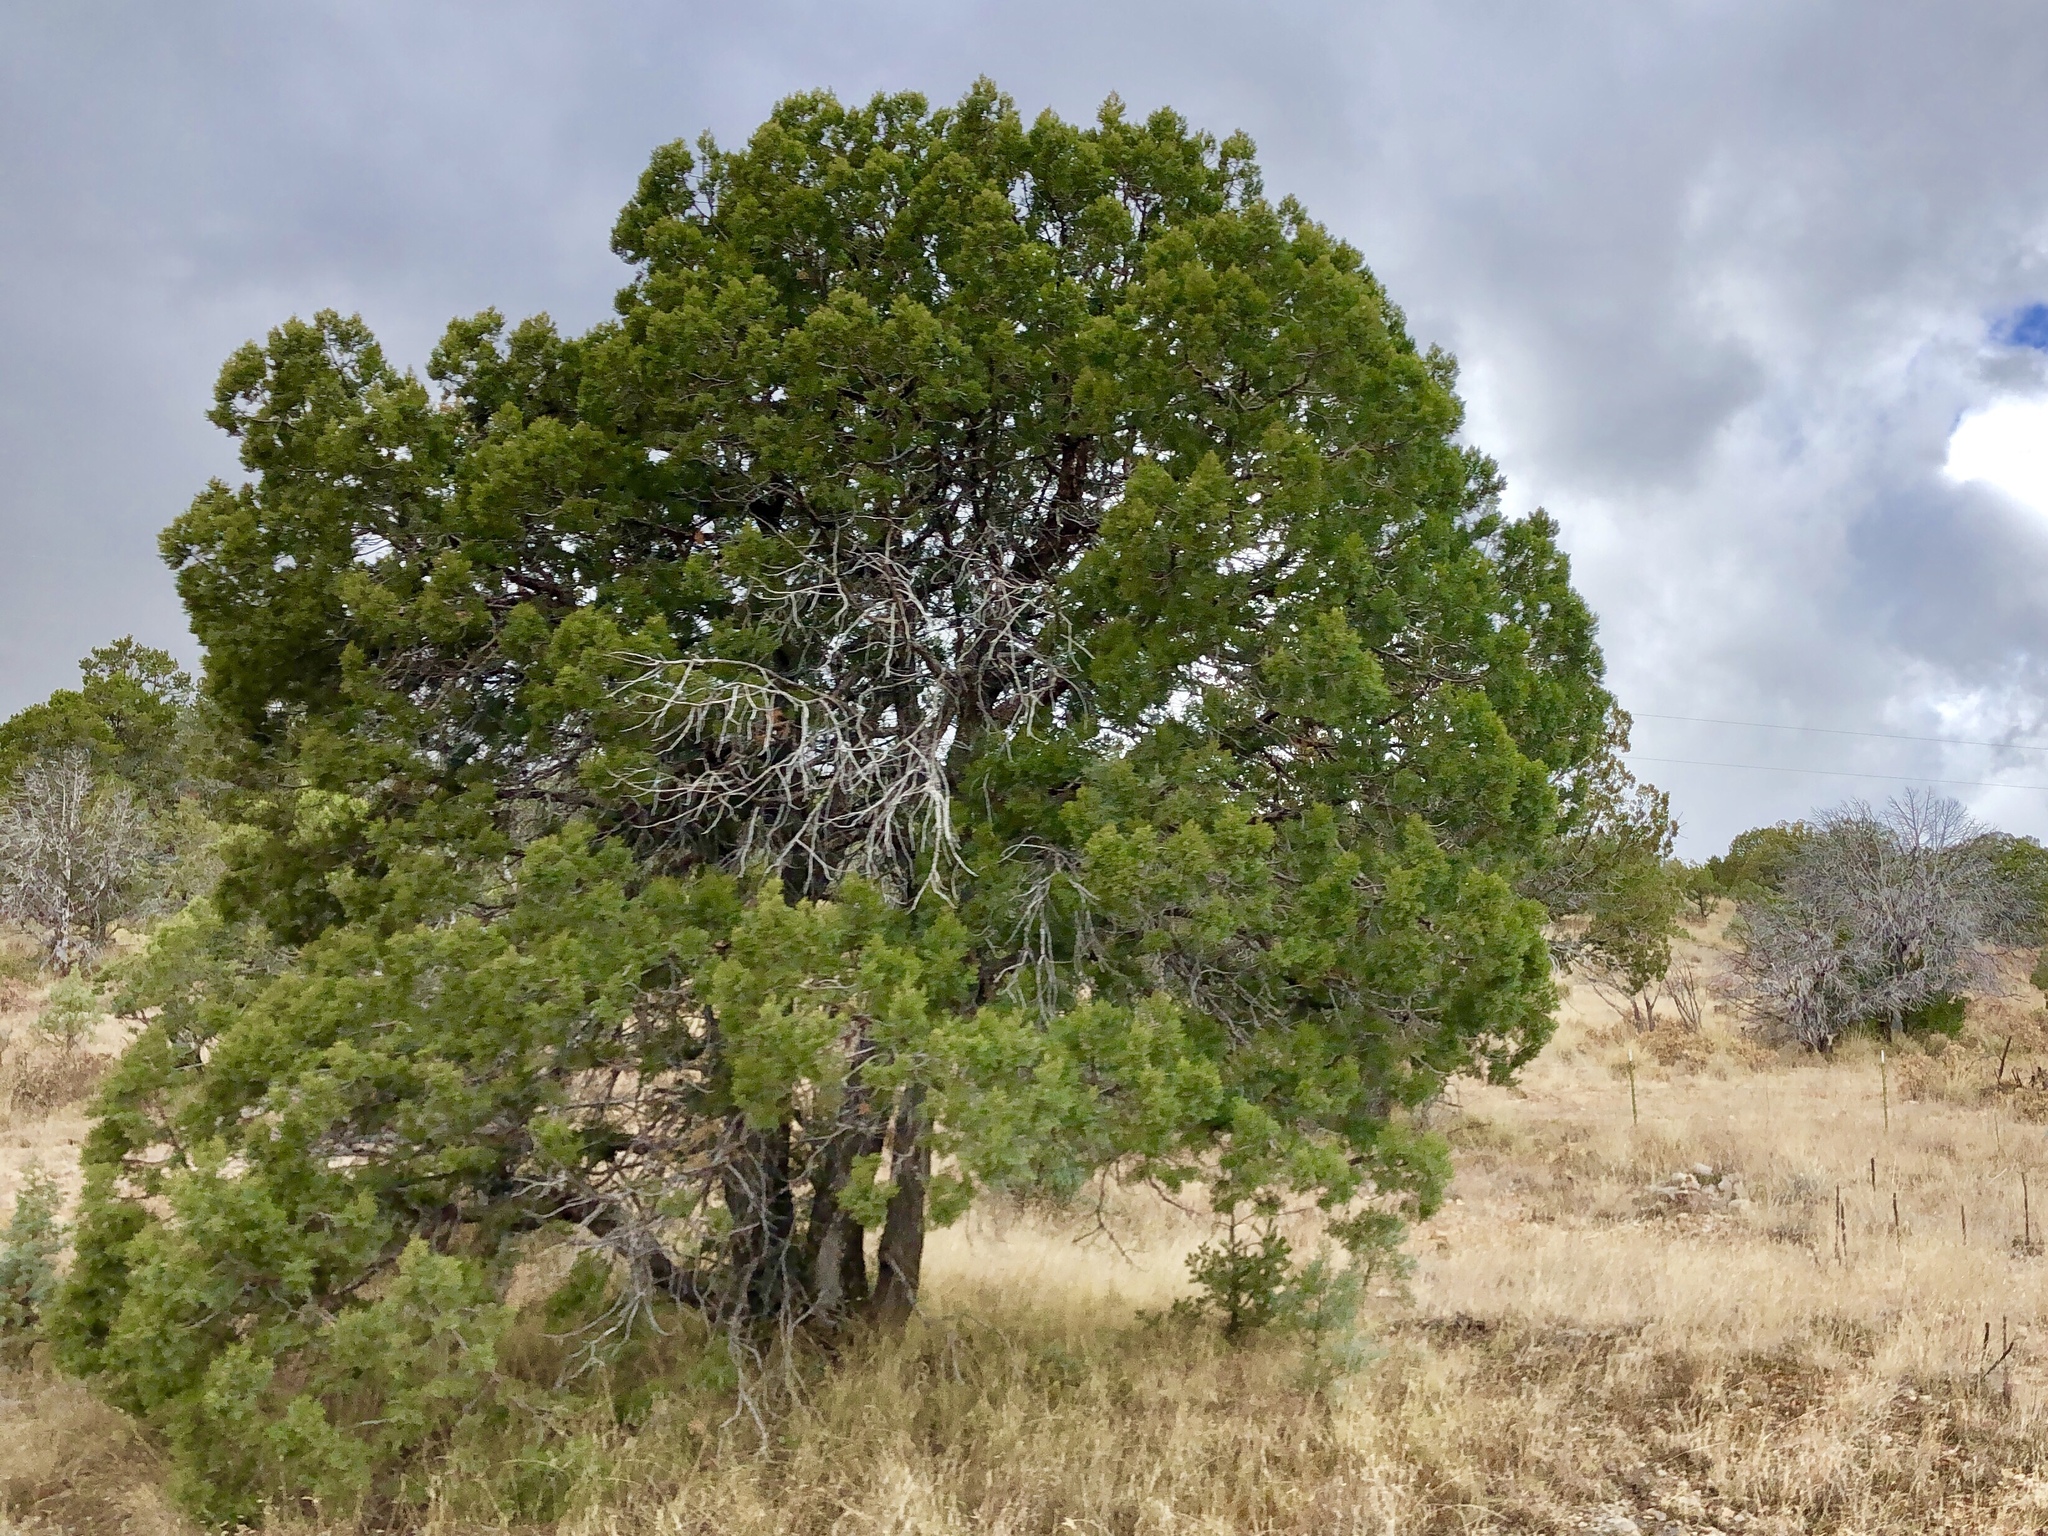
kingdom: Plantae
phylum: Tracheophyta
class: Pinopsida
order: Pinales
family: Cupressaceae
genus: Juniperus
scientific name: Juniperus deppeana
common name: Alligator juniper
